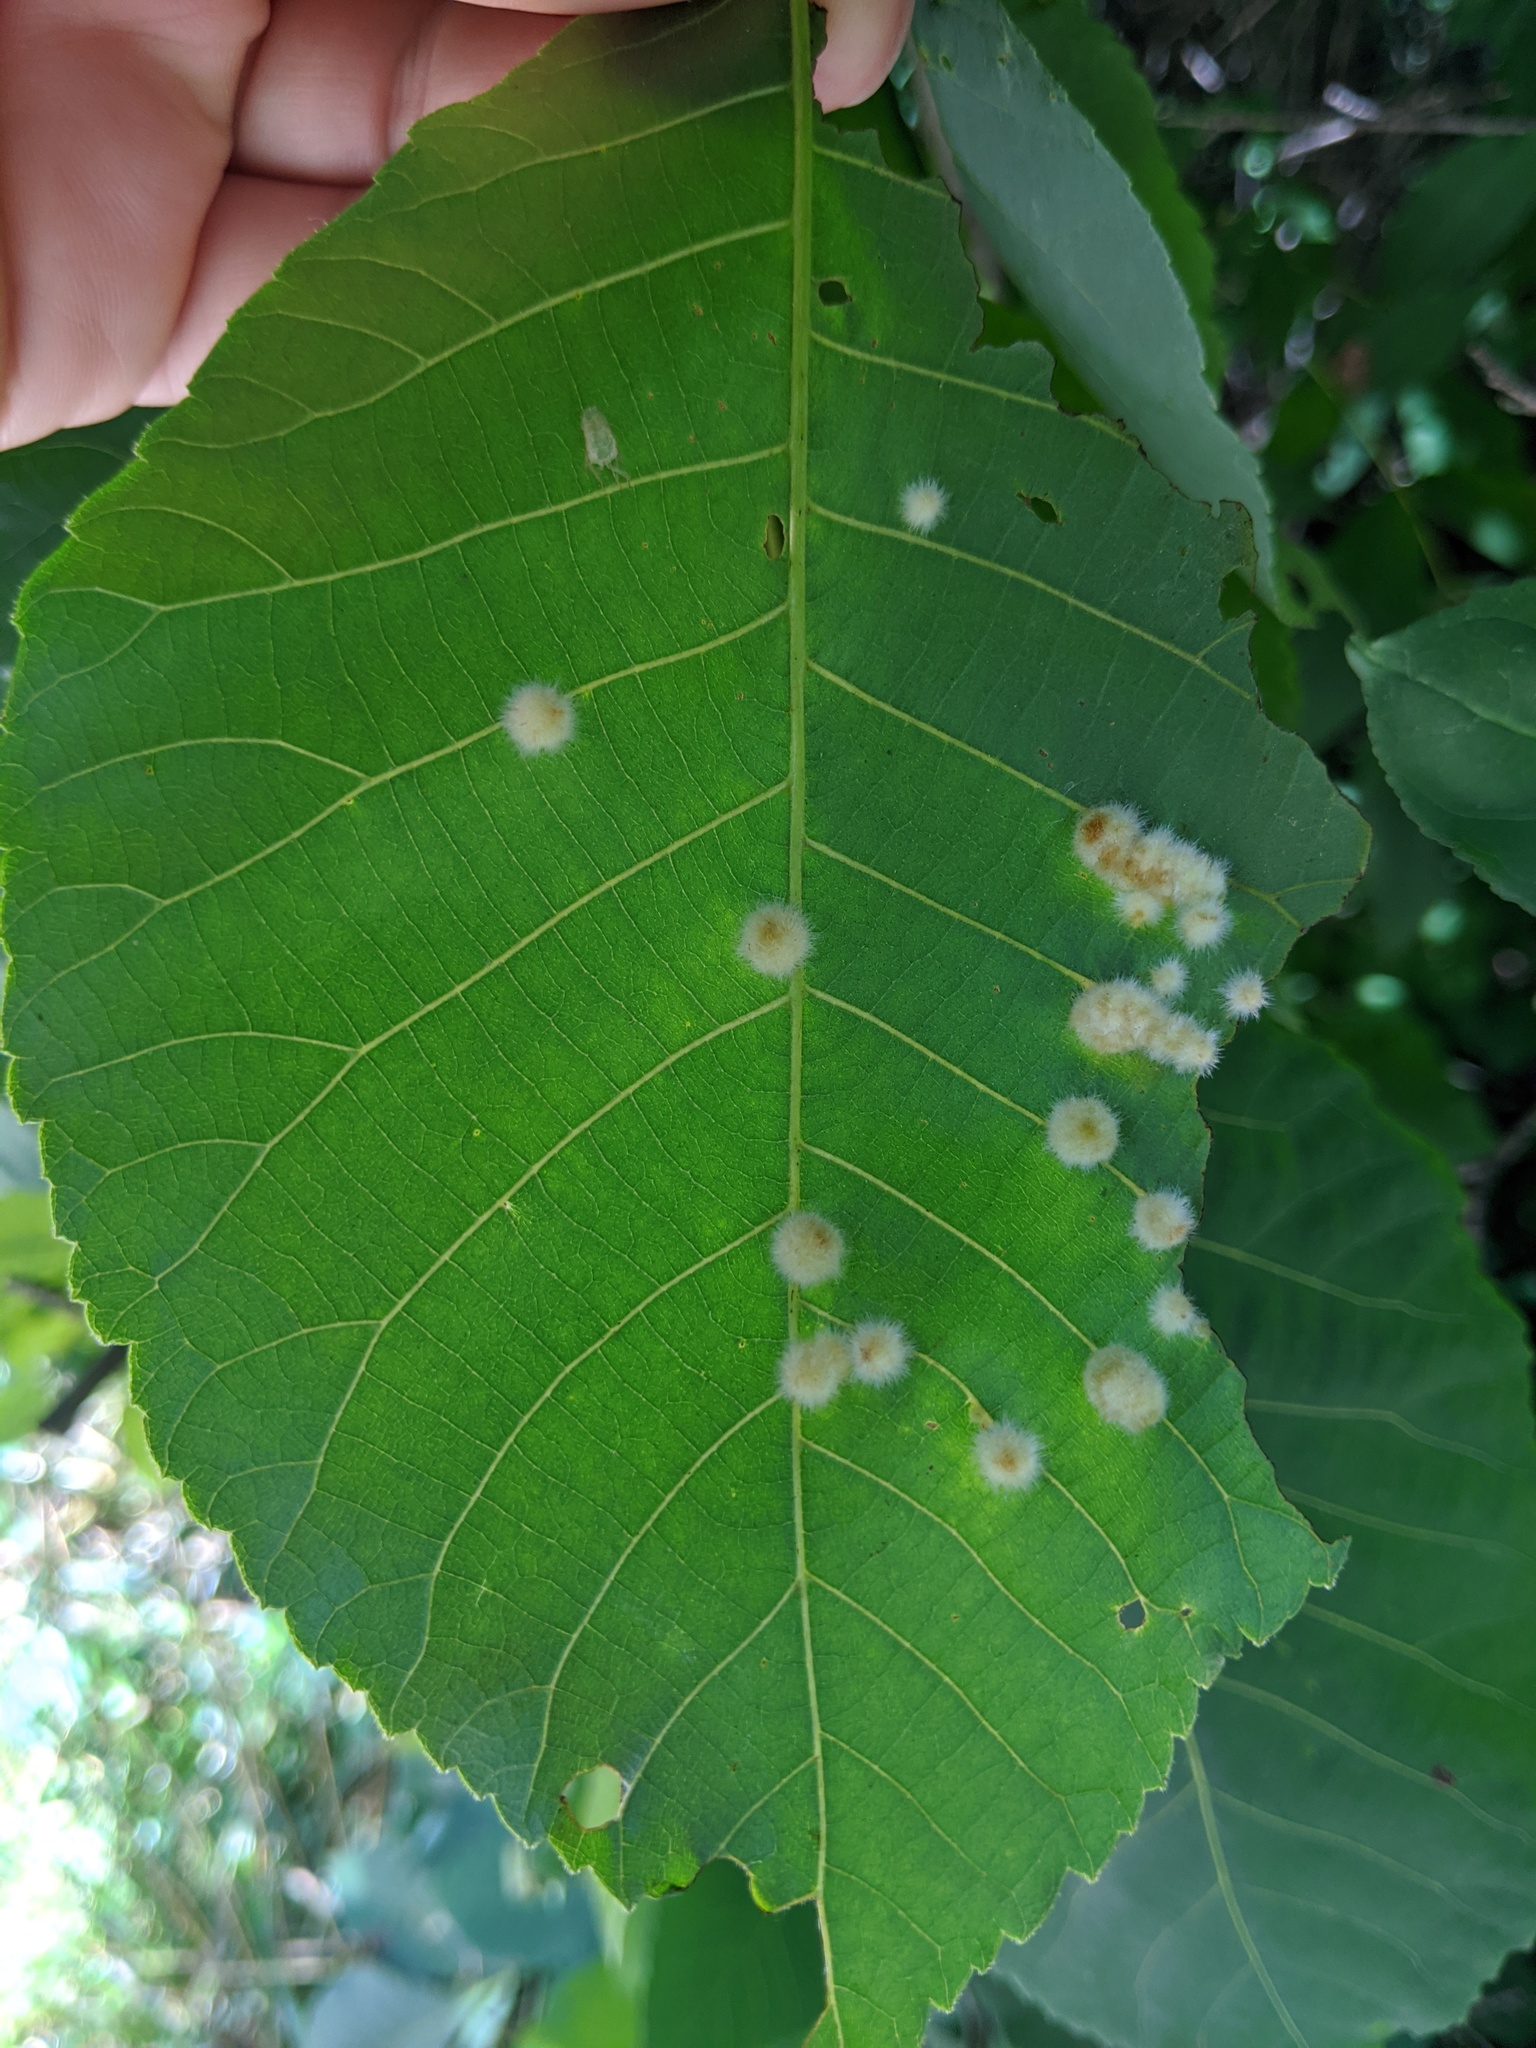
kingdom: Animalia
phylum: Arthropoda
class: Insecta
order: Diptera
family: Cecidomyiidae
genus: Caryomyia
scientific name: Caryomyia aggregata
